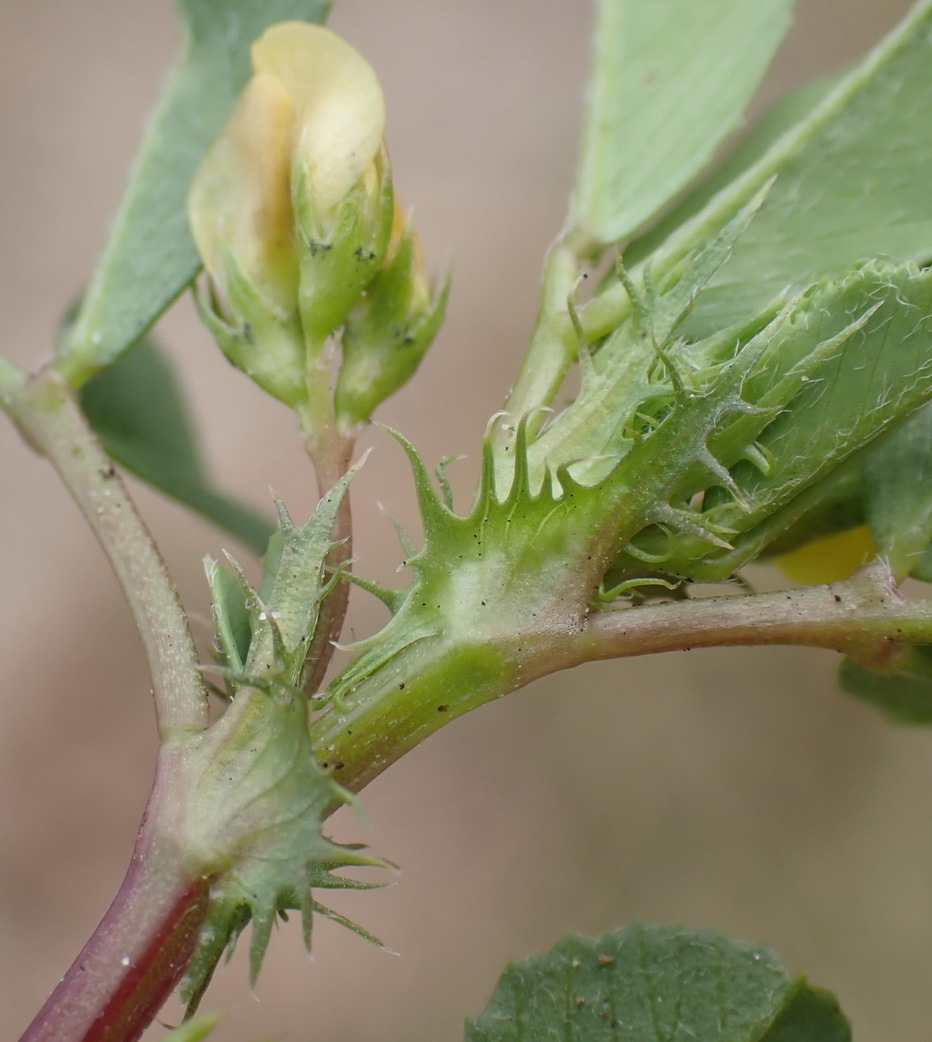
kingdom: Plantae
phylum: Tracheophyta
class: Magnoliopsida
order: Fabales
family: Fabaceae
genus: Medicago
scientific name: Medicago polymorpha
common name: Burclover
